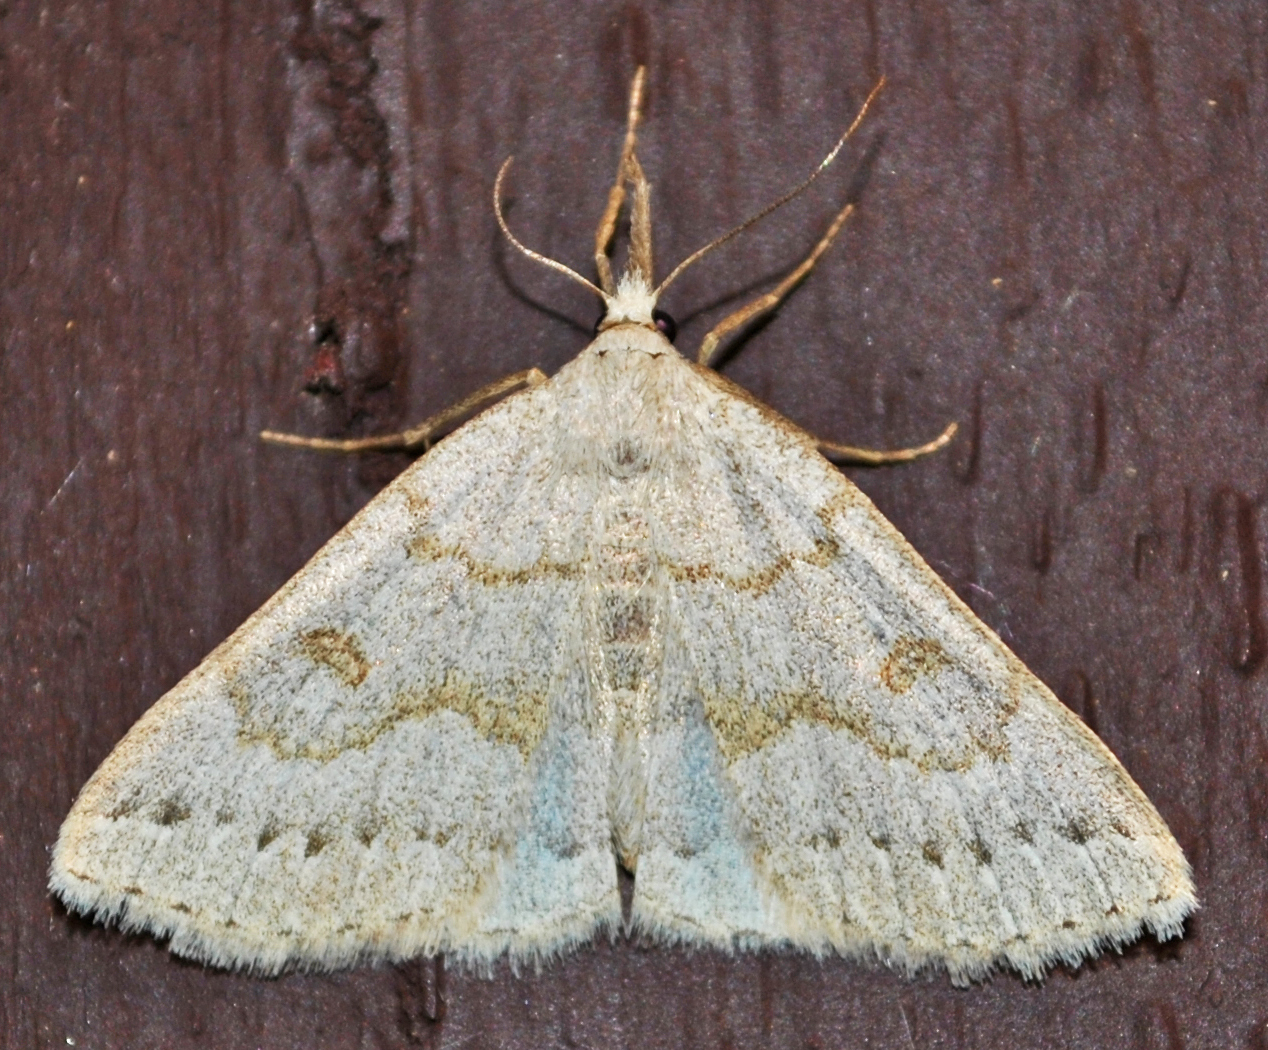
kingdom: Animalia
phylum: Arthropoda
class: Insecta
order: Lepidoptera
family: Erebidae
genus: Macrochilo
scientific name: Macrochilo morbidalis
